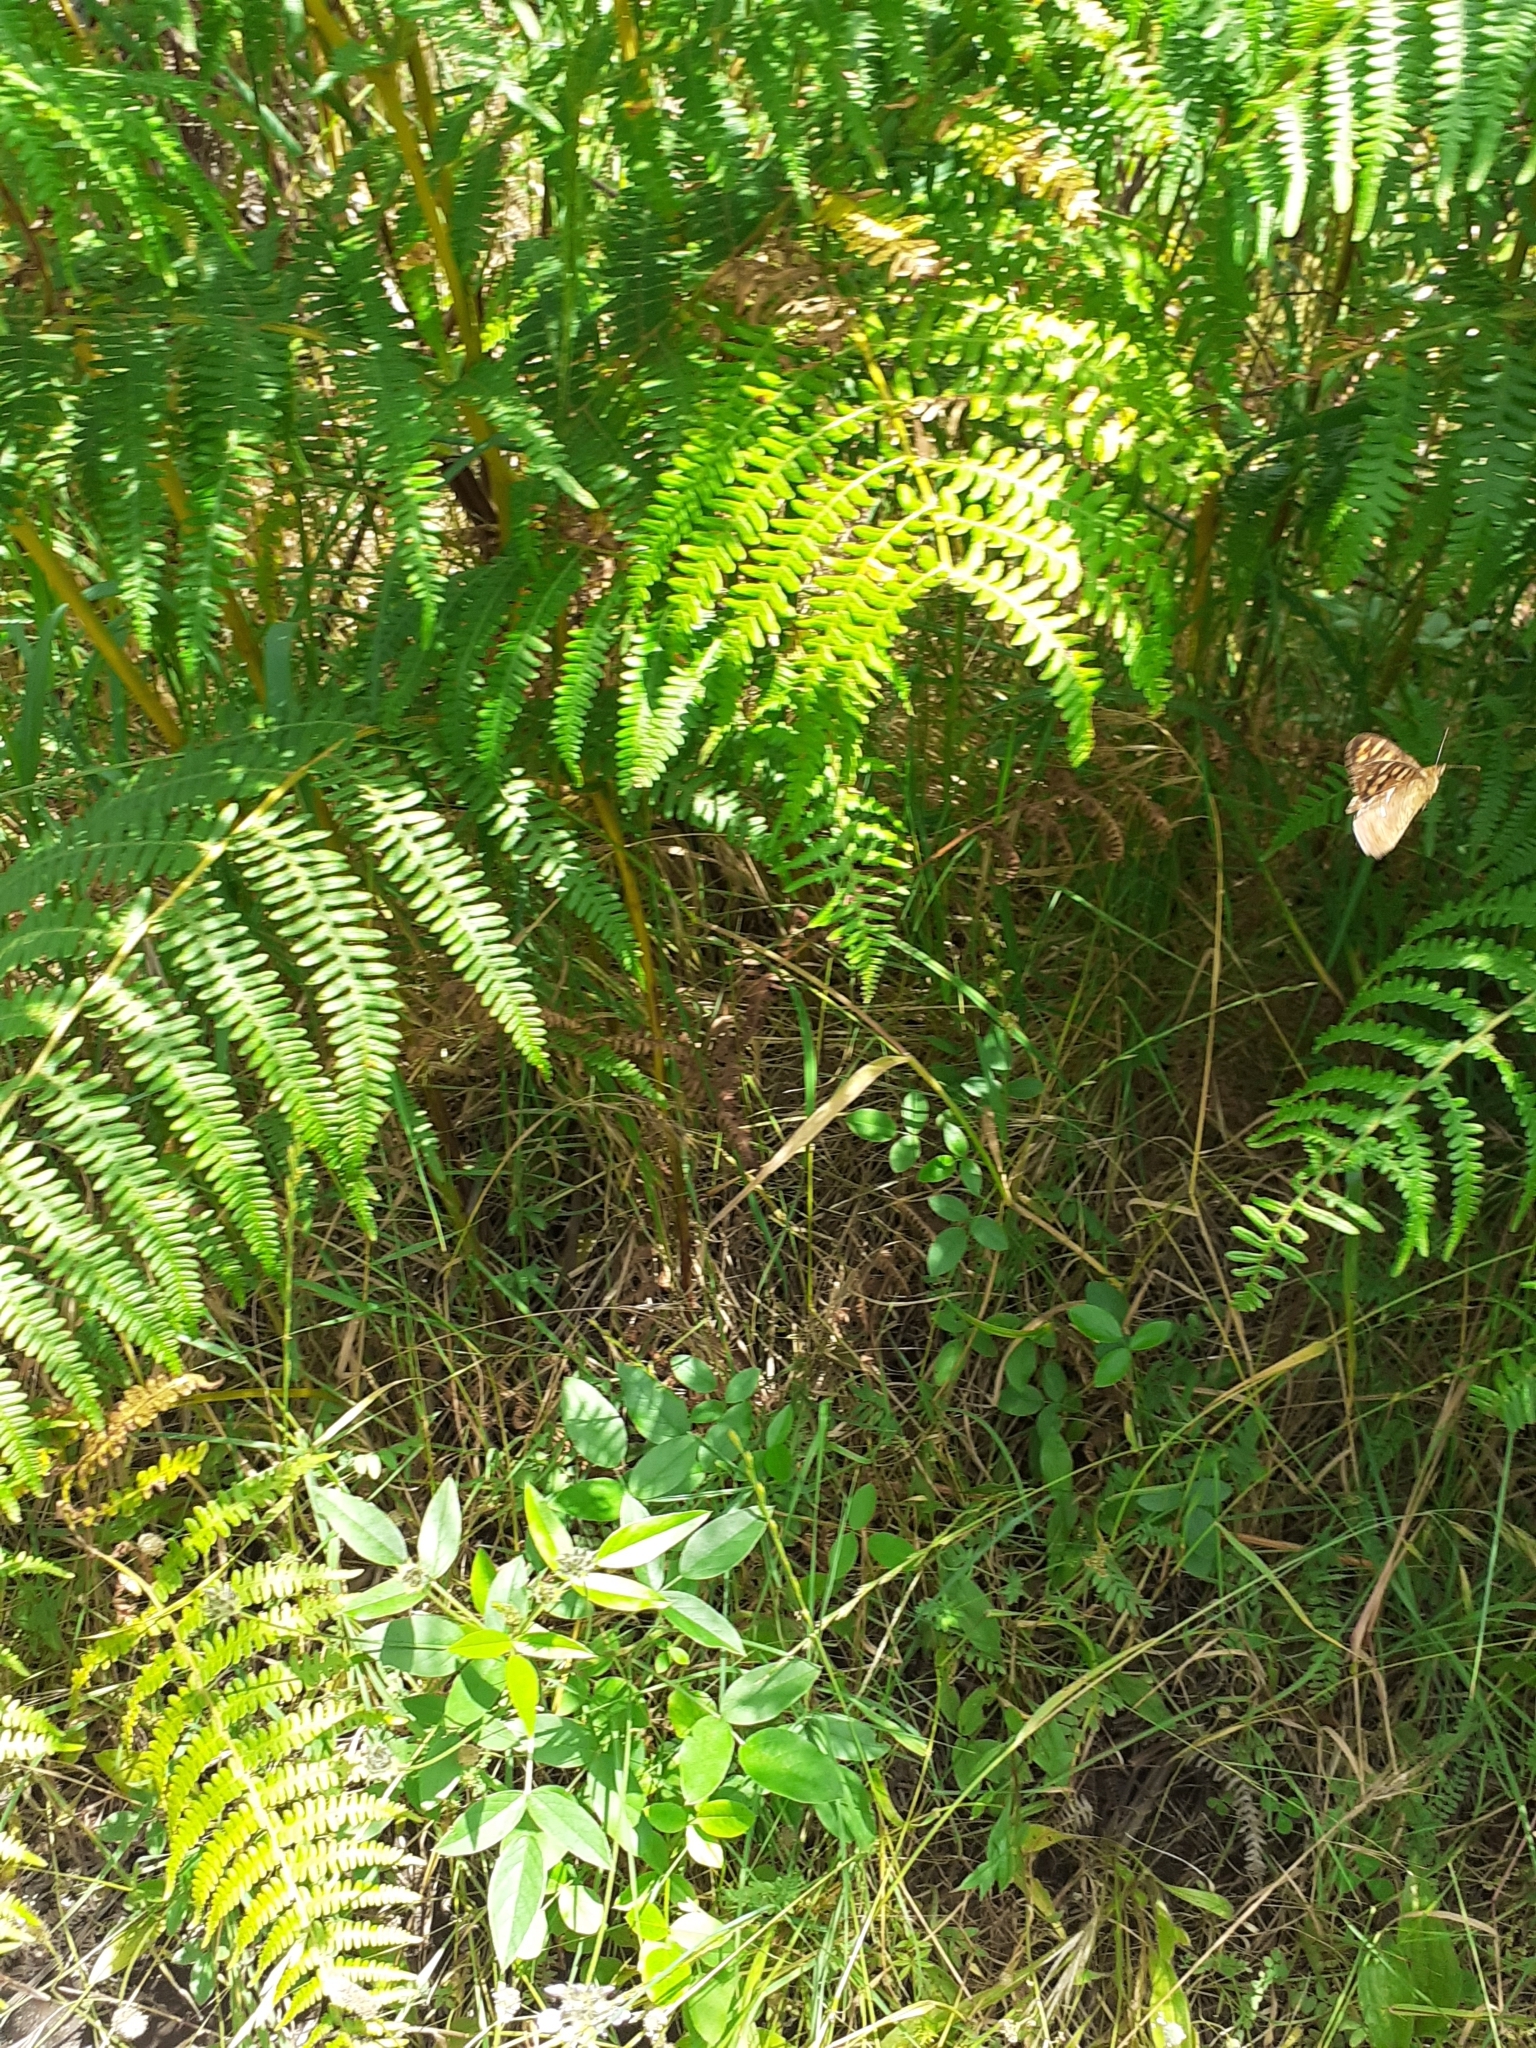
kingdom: Animalia
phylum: Arthropoda
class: Insecta
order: Lepidoptera
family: Nymphalidae
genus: Pararge
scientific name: Pararge aegeria
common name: Speckled wood
